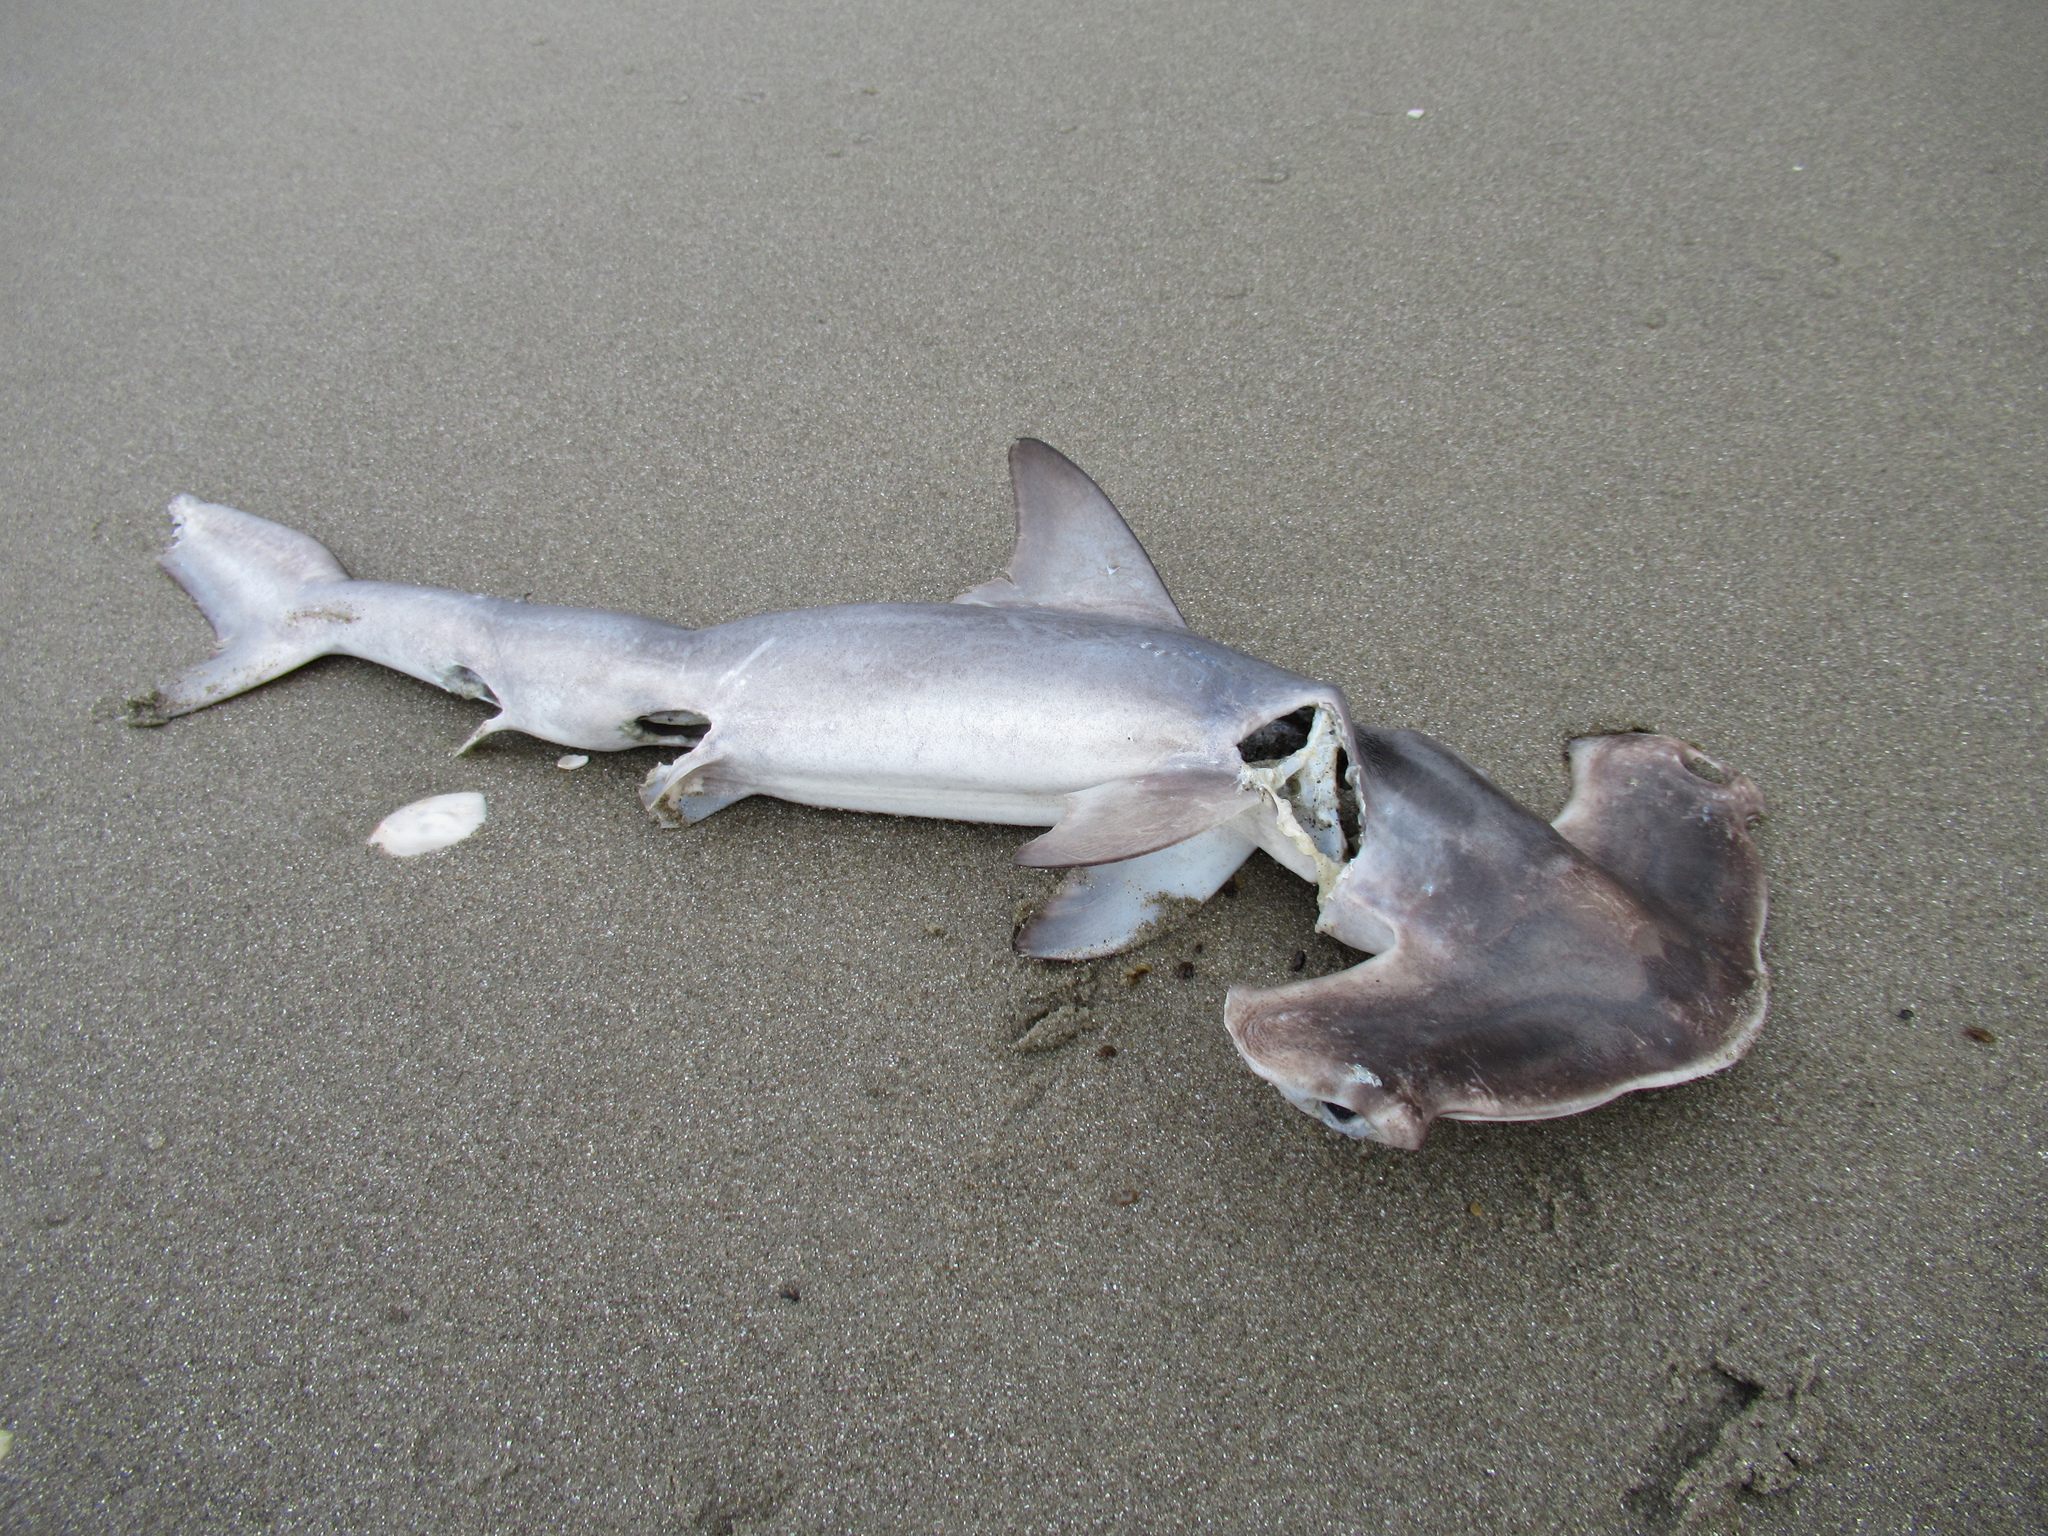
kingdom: Animalia
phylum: Chordata
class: Elasmobranchii
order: Carcharhiniformes
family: Sphyrnidae
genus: Sphyrna
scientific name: Sphyrna zygaena
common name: Smooth hammerhead
